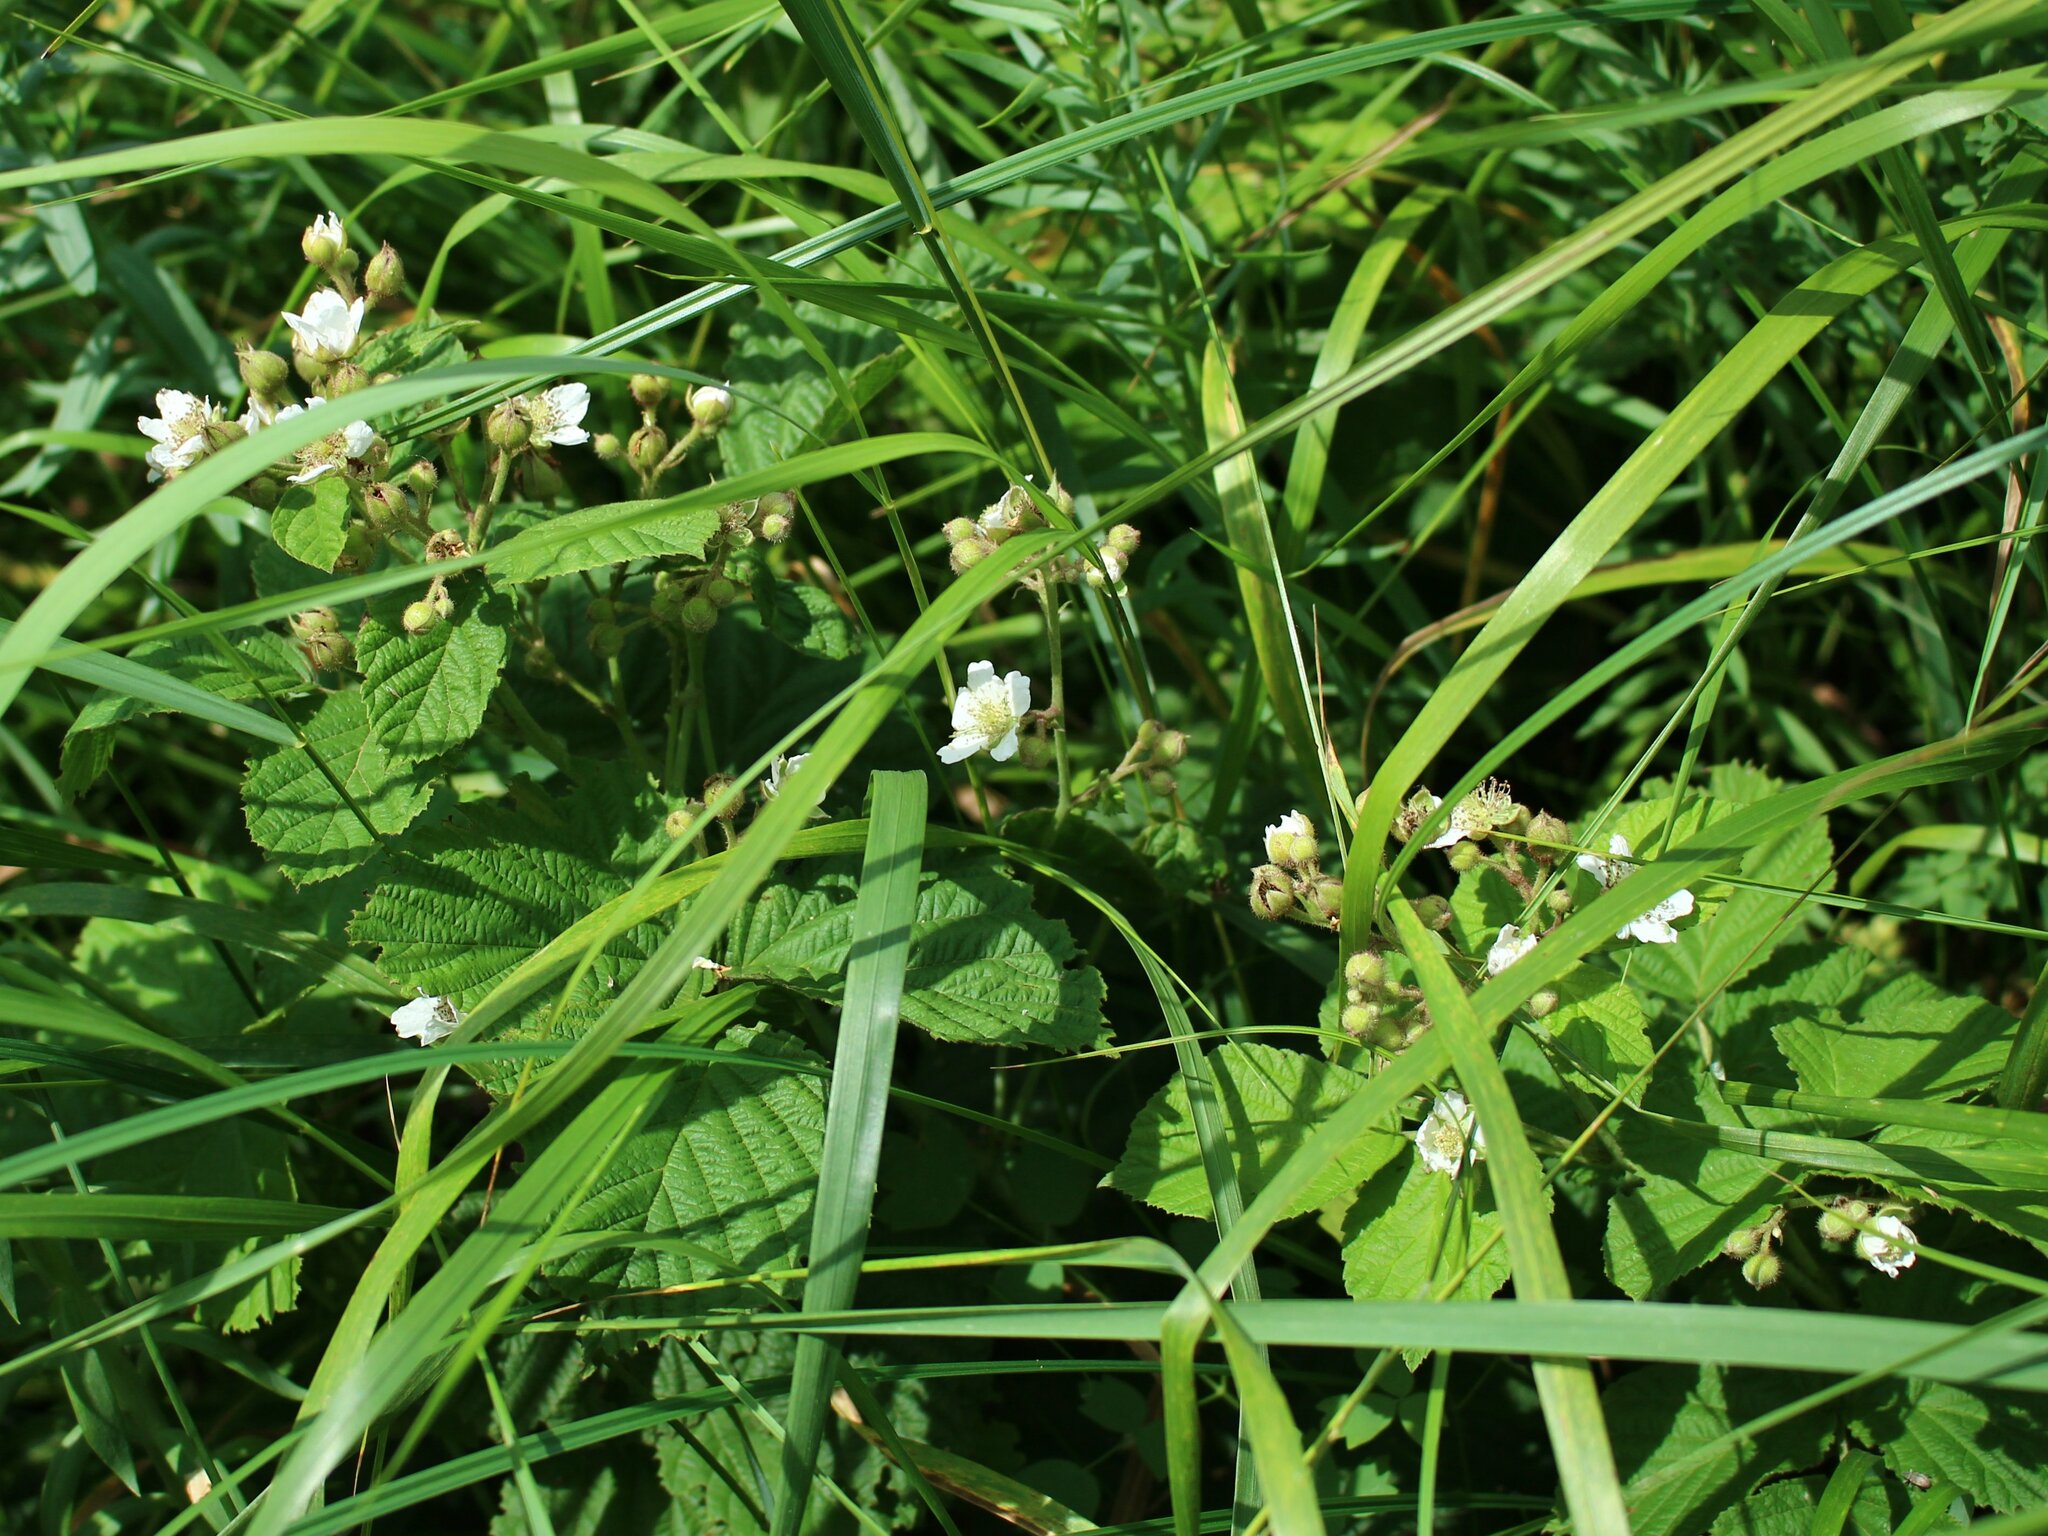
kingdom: Plantae
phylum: Tracheophyta
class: Magnoliopsida
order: Rosales
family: Rosaceae
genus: Rubus
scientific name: Rubus caesius
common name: Dewberry
